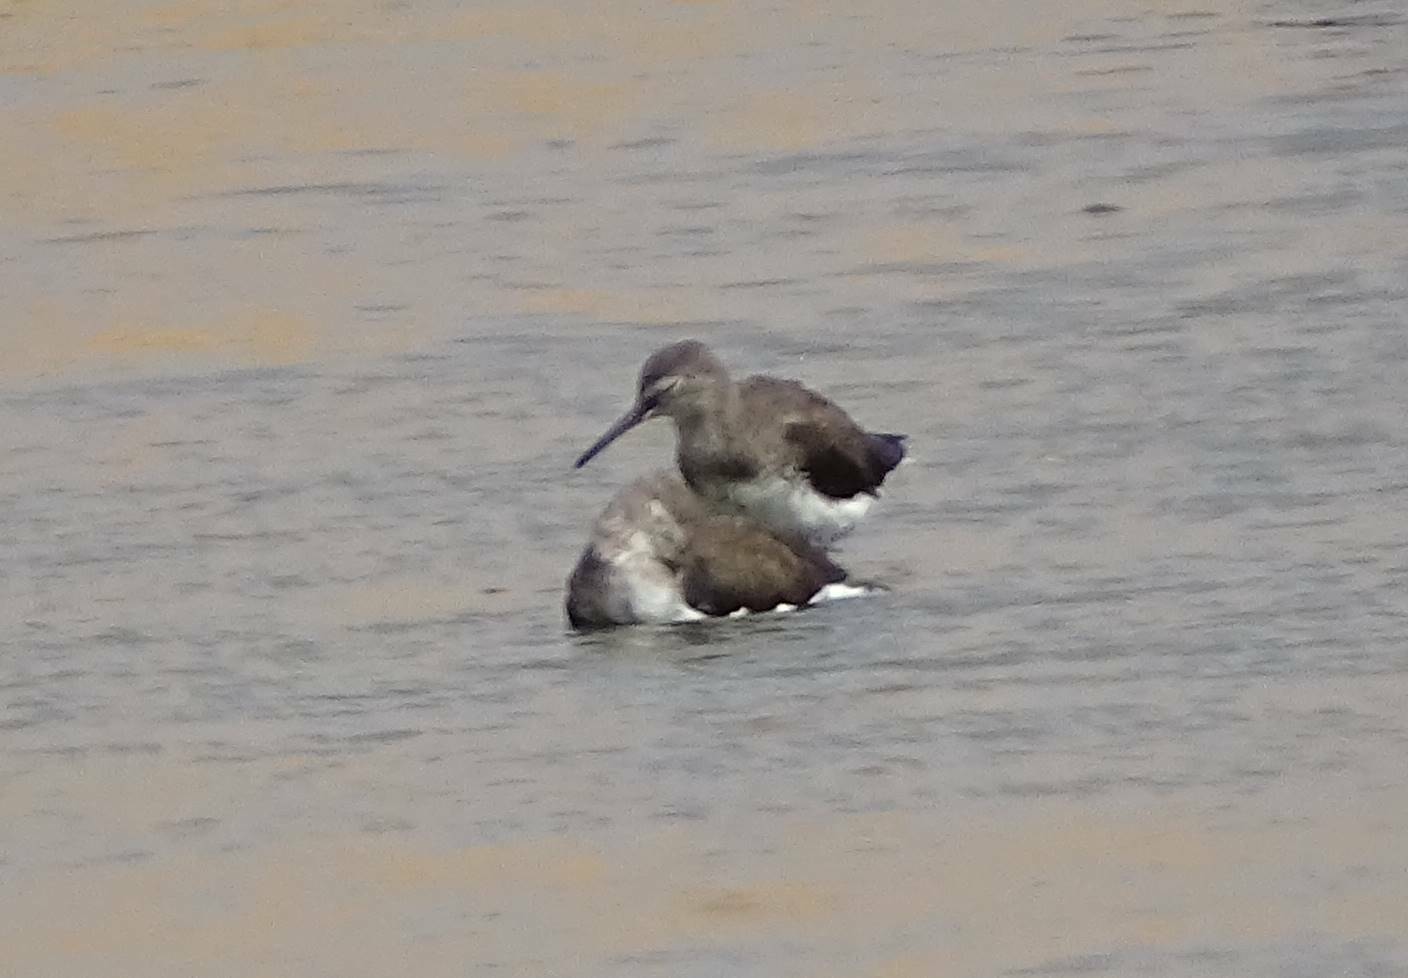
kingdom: Animalia
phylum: Chordata
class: Aves
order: Charadriiformes
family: Scolopacidae
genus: Tringa
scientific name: Tringa ochropus
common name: Green sandpiper
